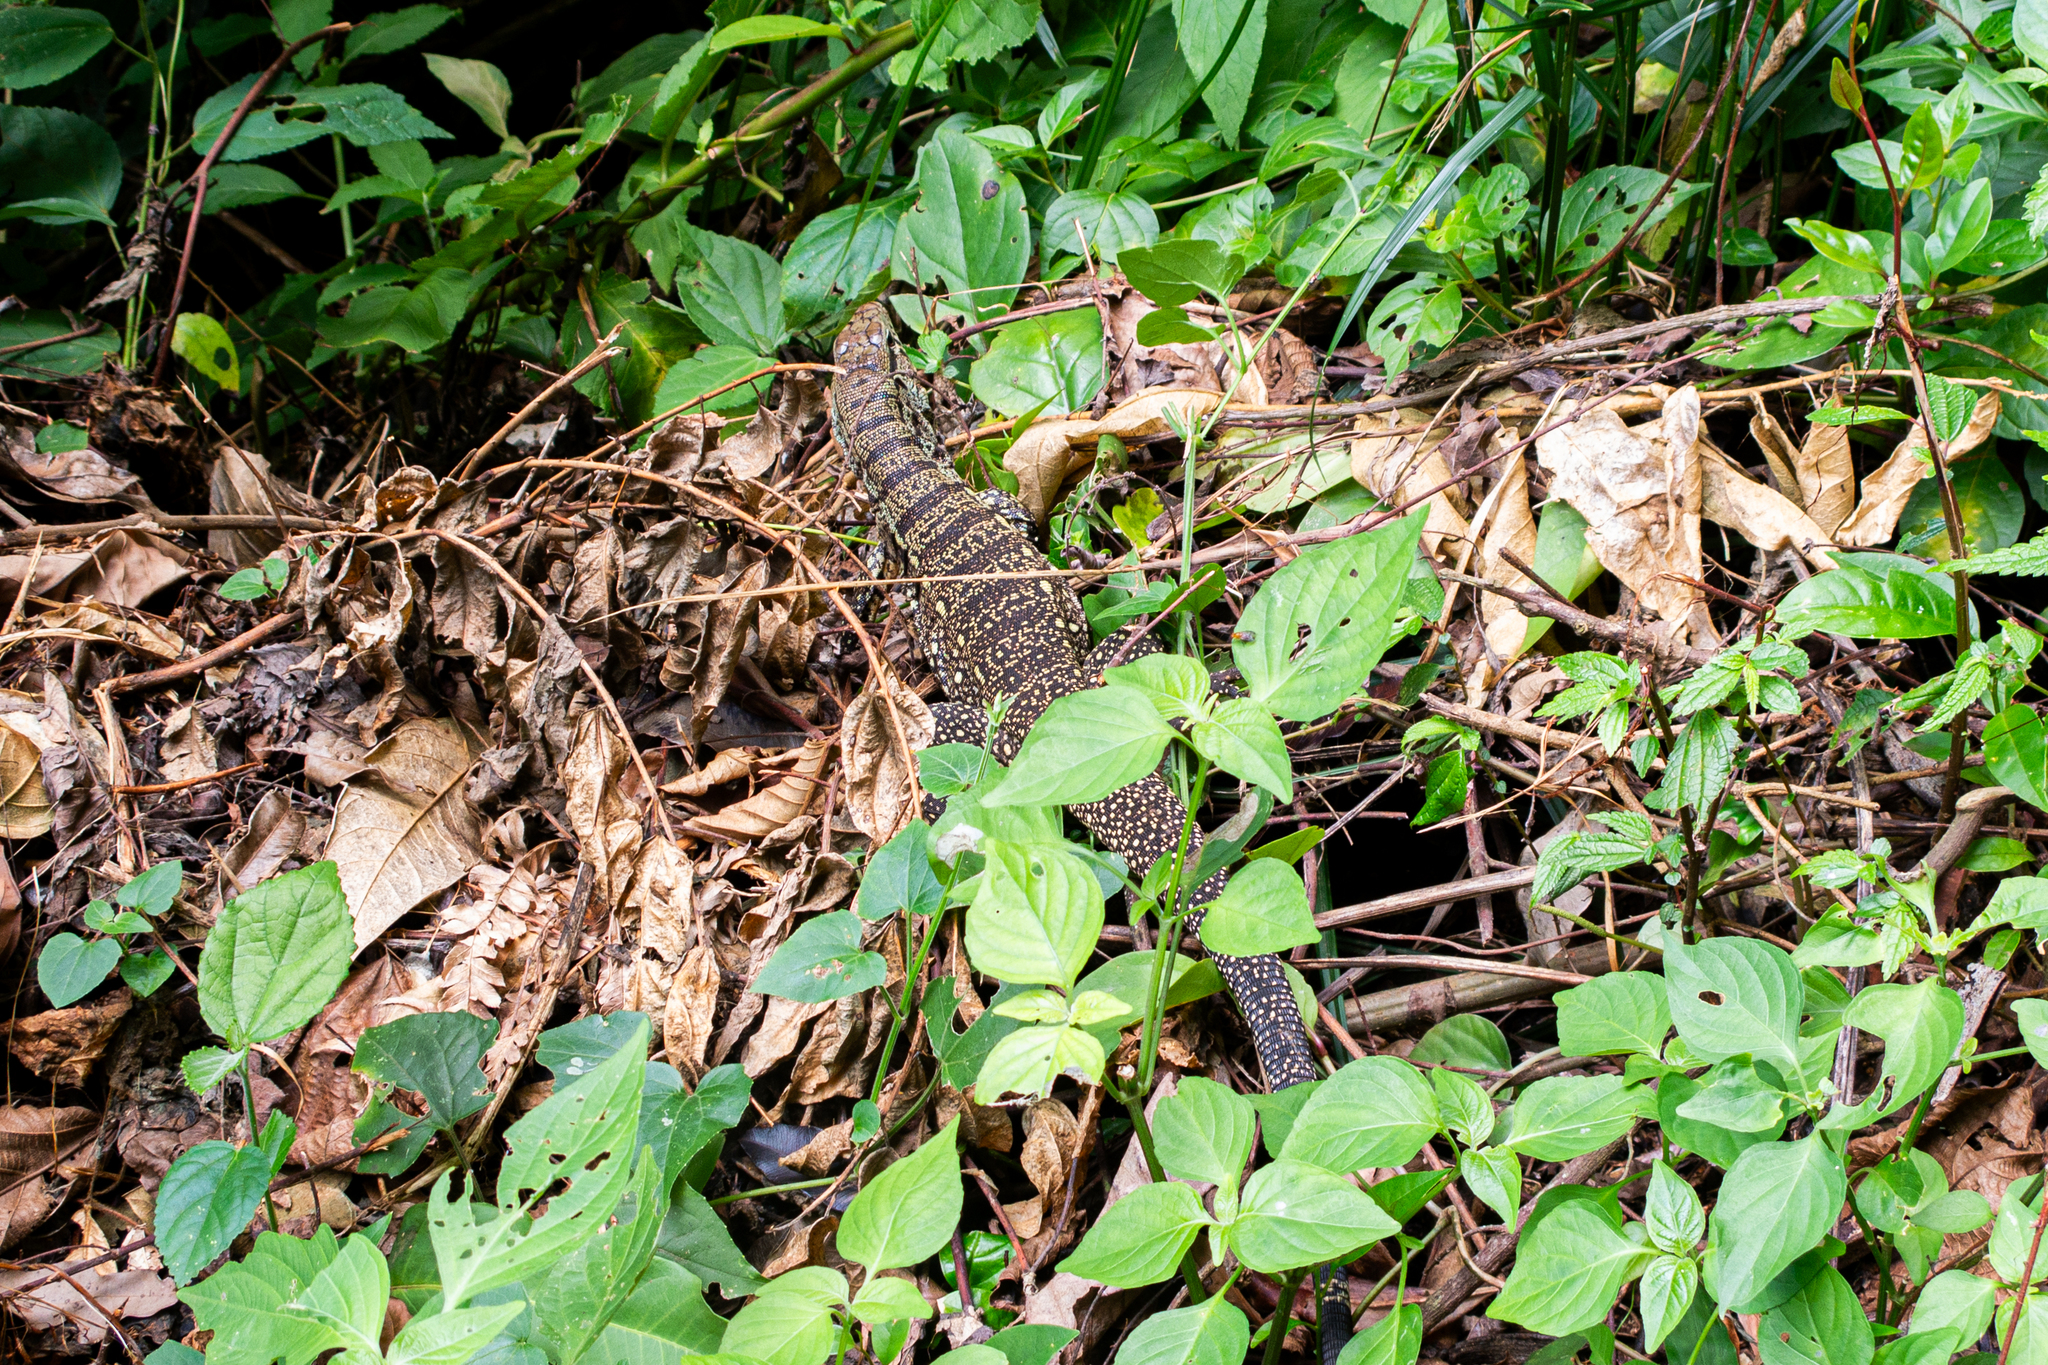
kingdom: Animalia
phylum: Chordata
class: Squamata
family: Teiidae
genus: Salvator
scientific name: Salvator merianae
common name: Argentine black and white tegu
